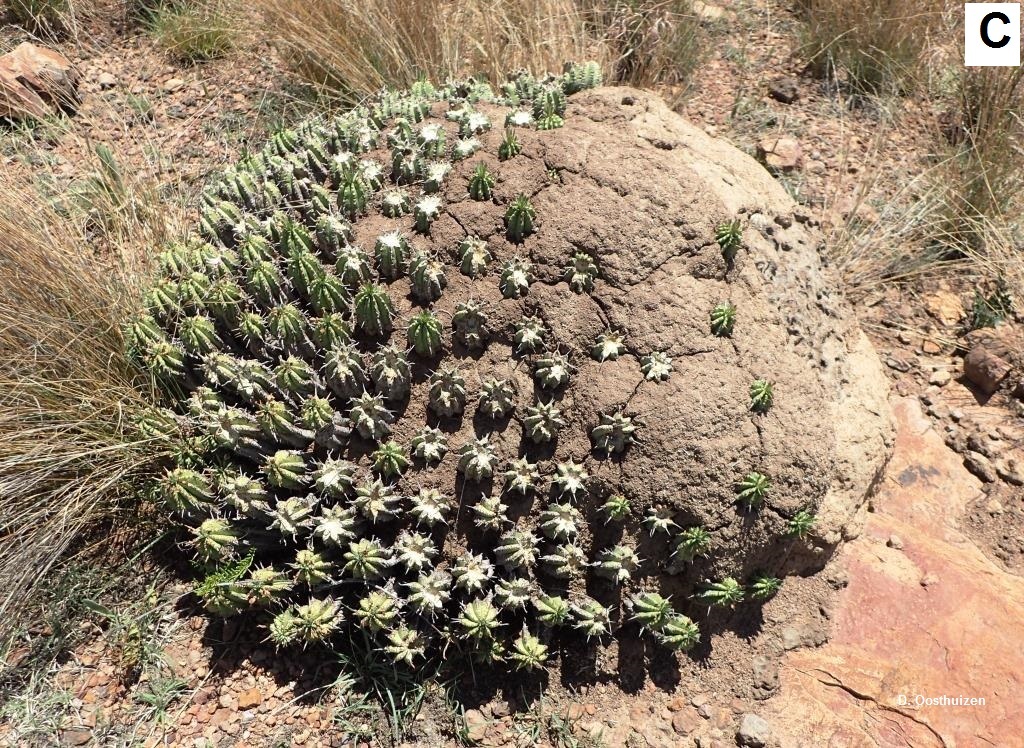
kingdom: Plantae
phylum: Tracheophyta
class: Magnoliopsida
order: Malpighiales
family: Euphorbiaceae
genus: Euphorbia
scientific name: Euphorbia pulvinata
